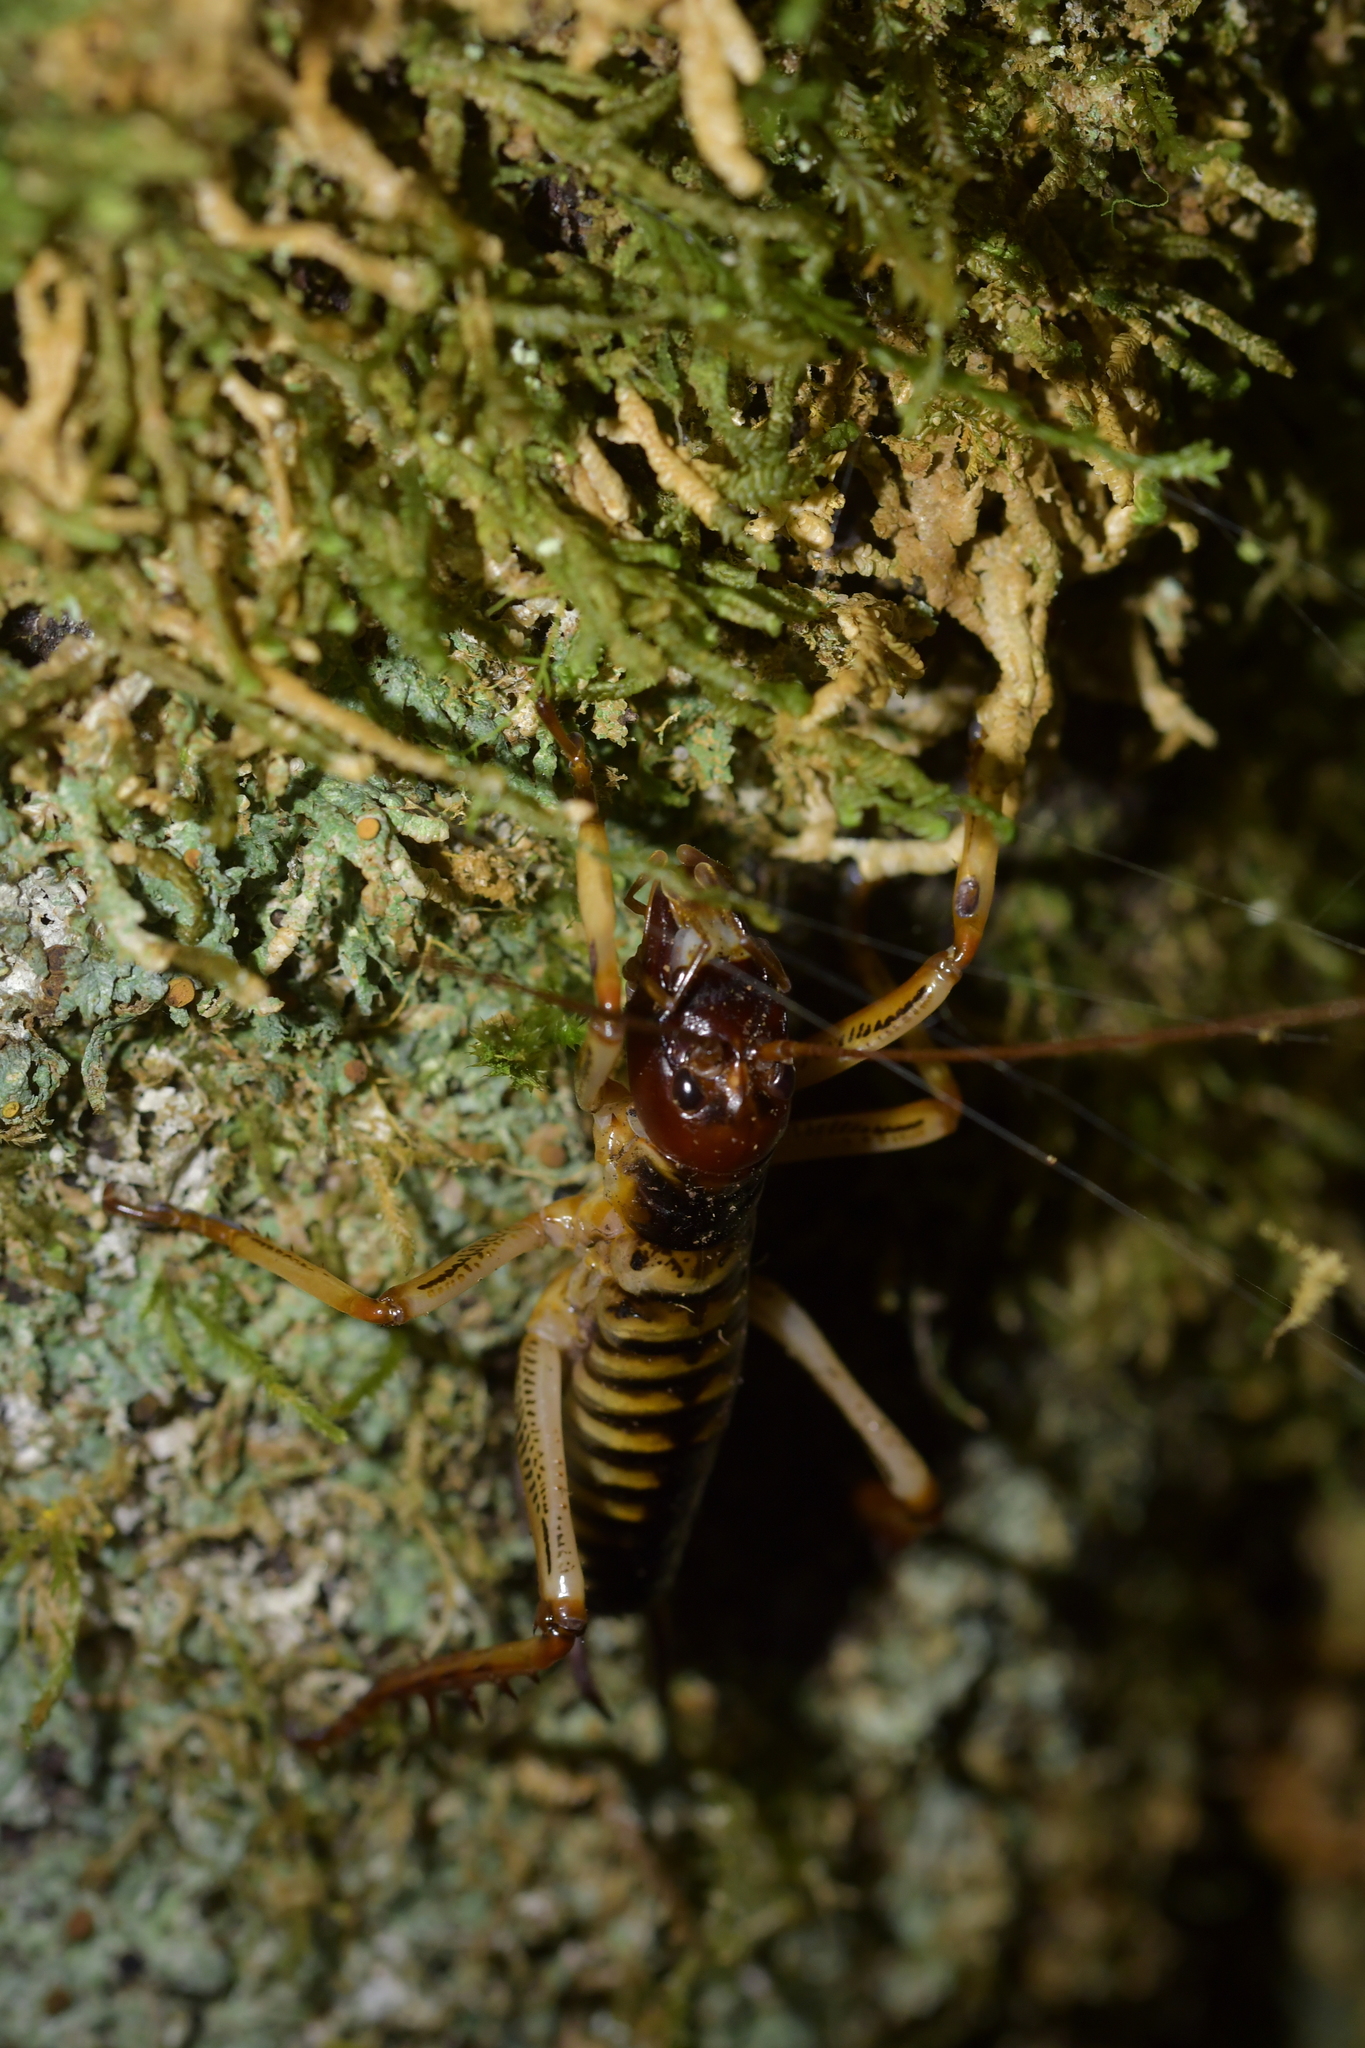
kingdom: Animalia
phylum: Arthropoda
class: Insecta
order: Orthoptera
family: Anostostomatidae
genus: Hemideina
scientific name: Hemideina crassidens
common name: Wellington tree weta
